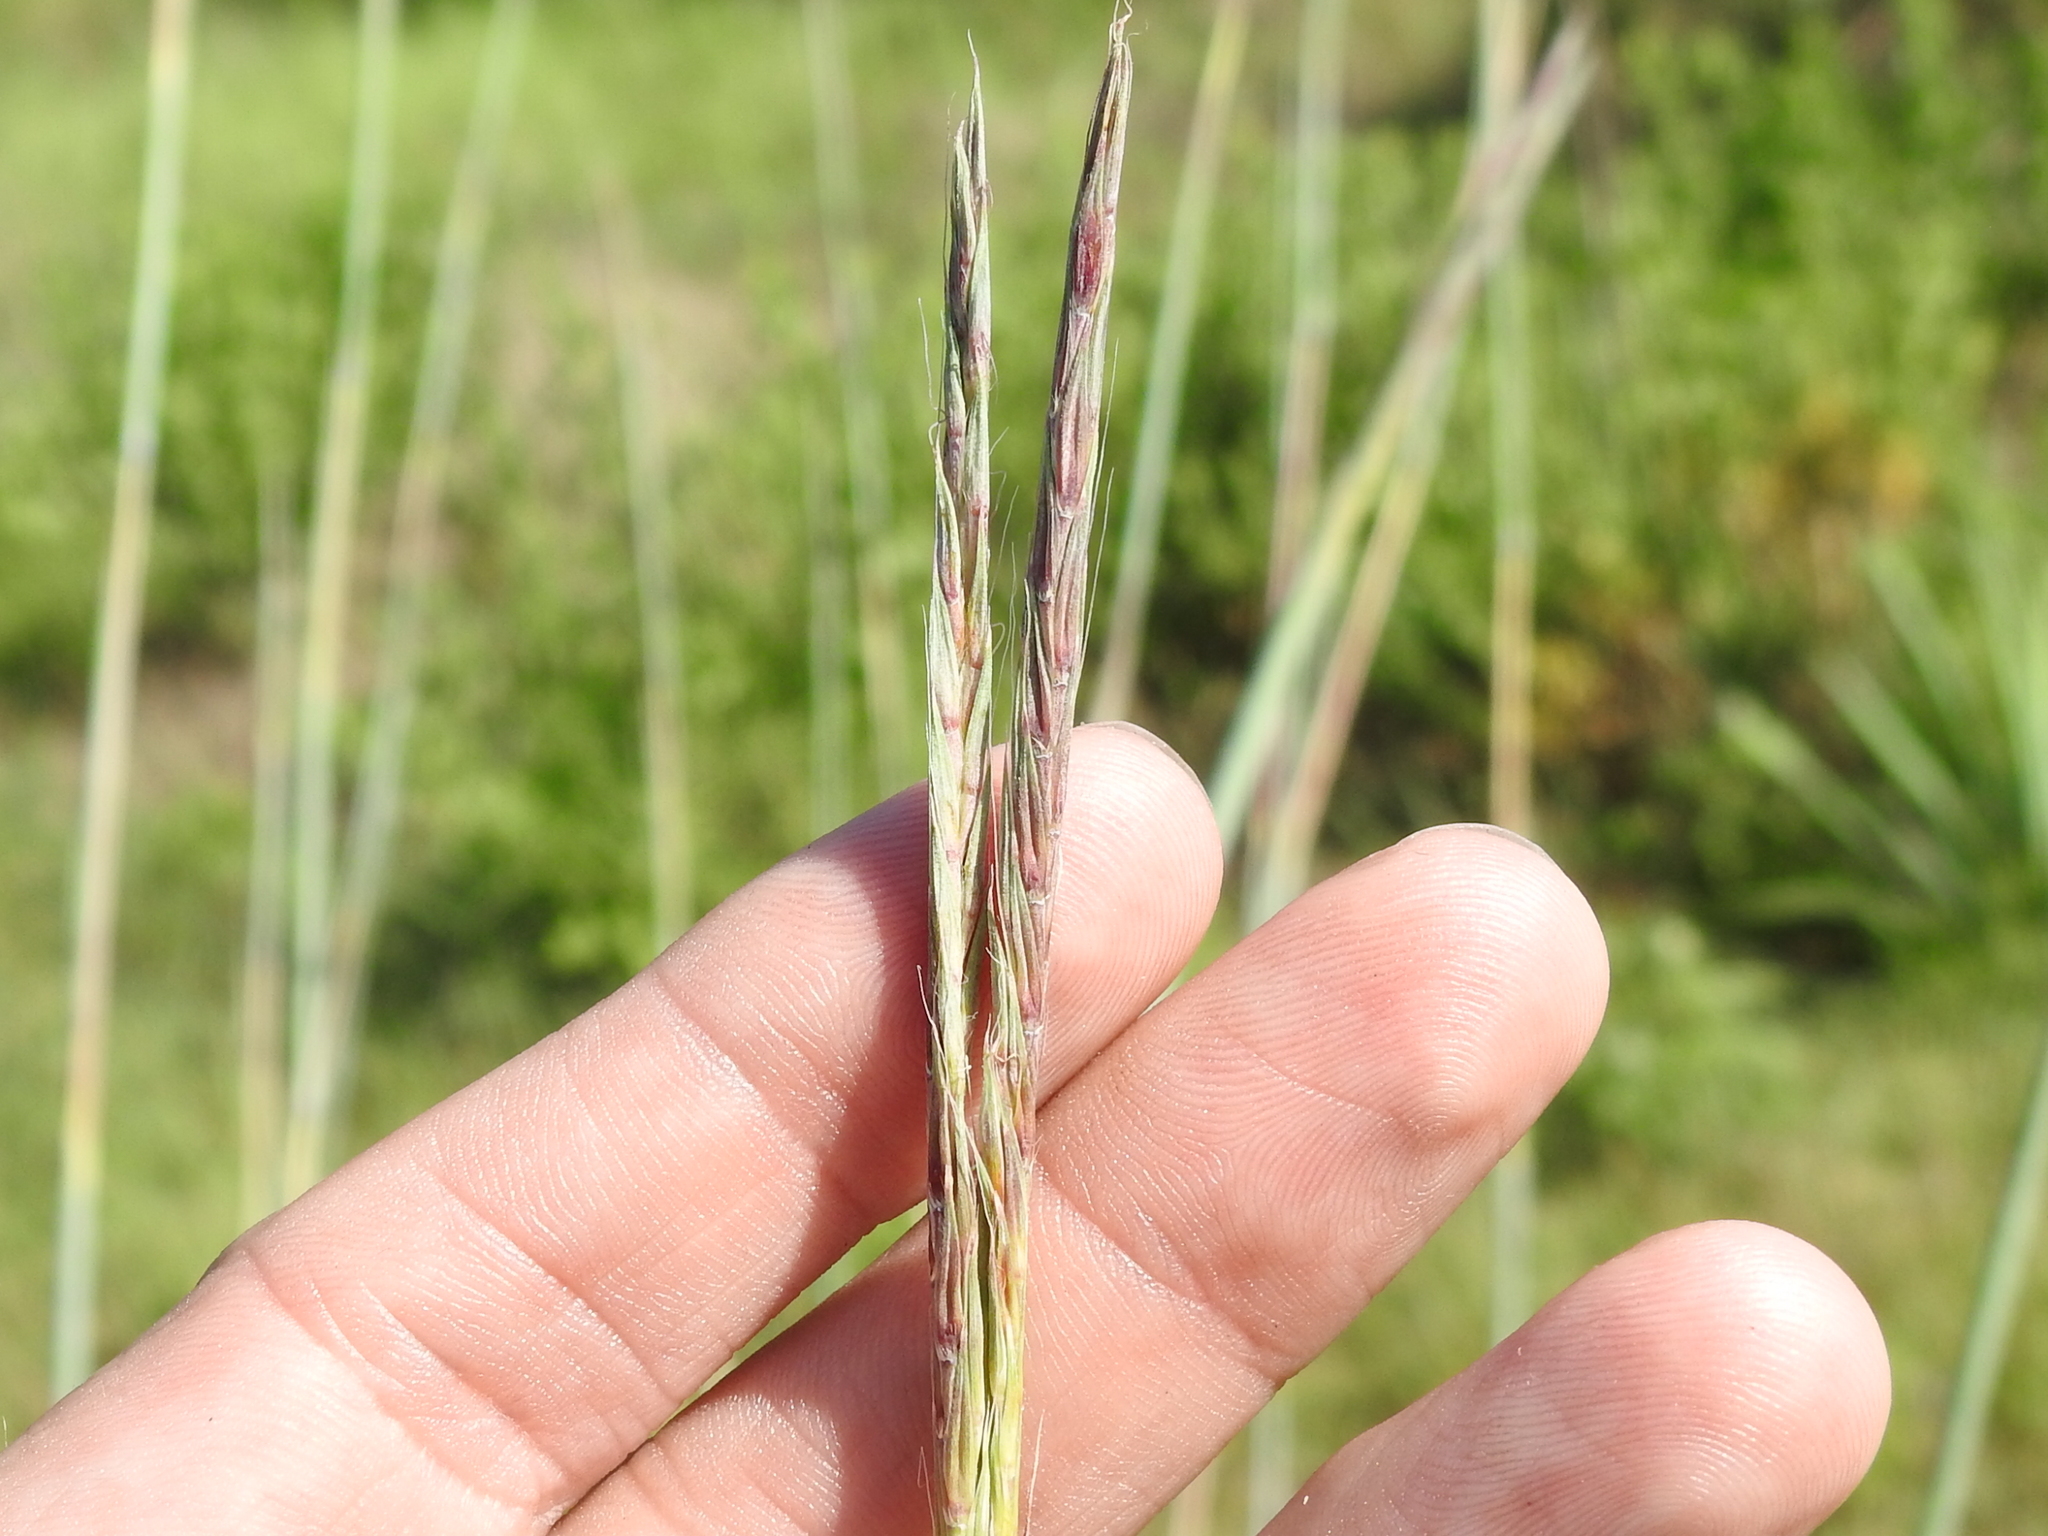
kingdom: Plantae
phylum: Tracheophyta
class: Liliopsida
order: Poales
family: Poaceae
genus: Andropogon
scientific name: Andropogon gerardi
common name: Big bluestem
